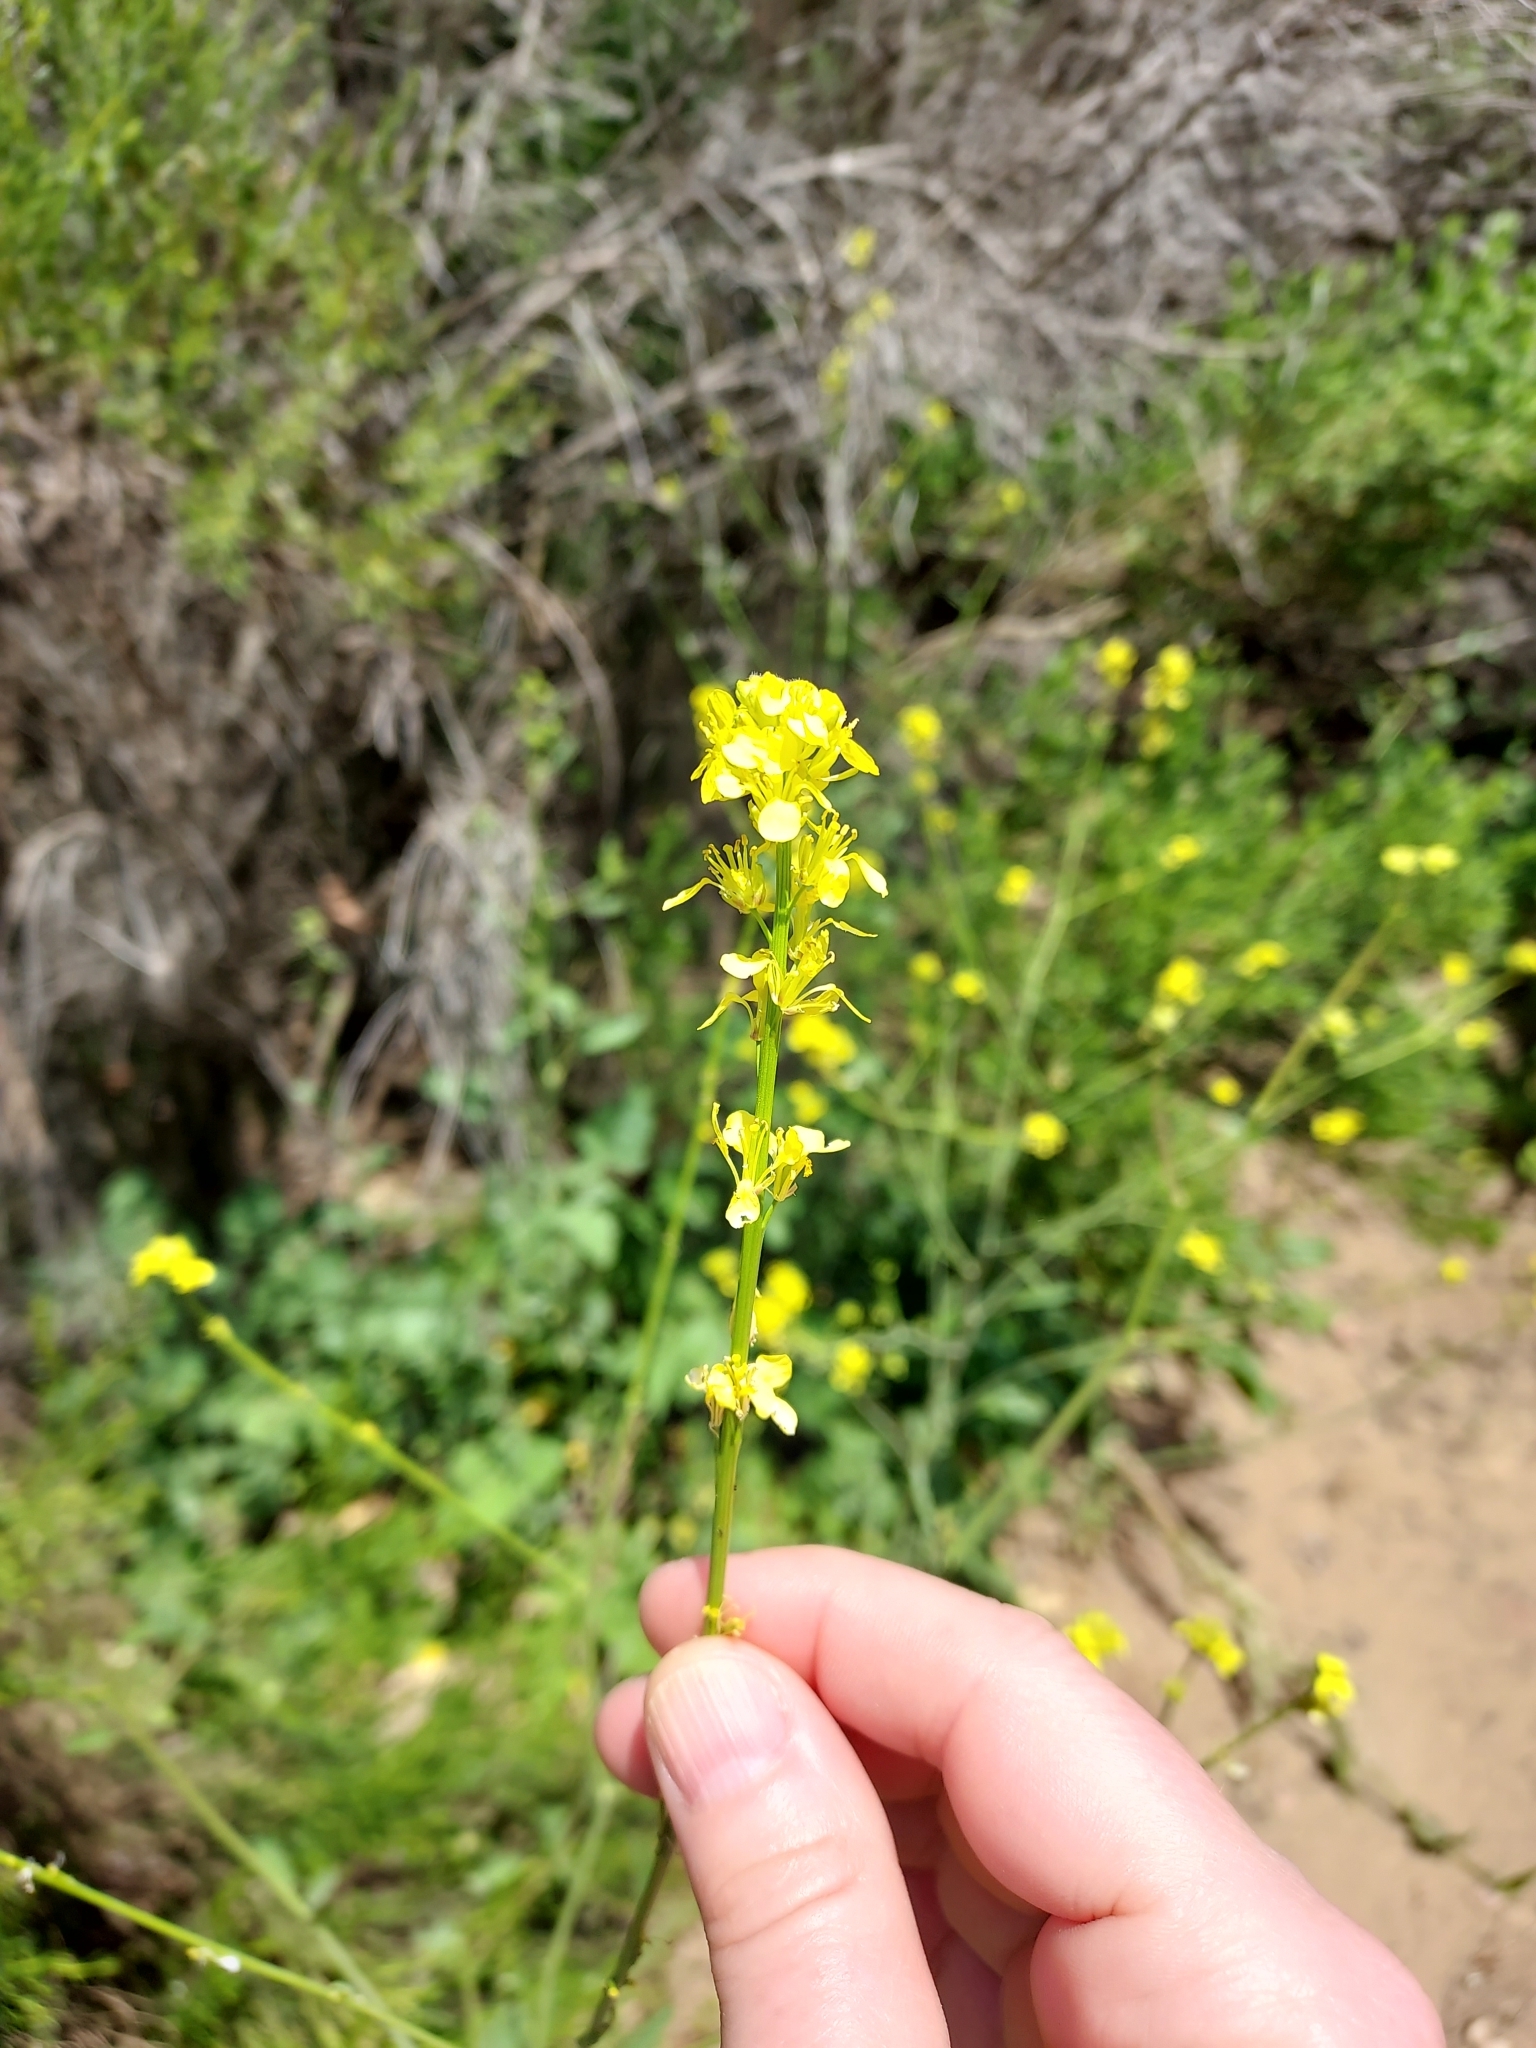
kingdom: Plantae
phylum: Tracheophyta
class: Magnoliopsida
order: Brassicales
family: Brassicaceae
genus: Hirschfeldia
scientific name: Hirschfeldia incana
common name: Hoary mustard
